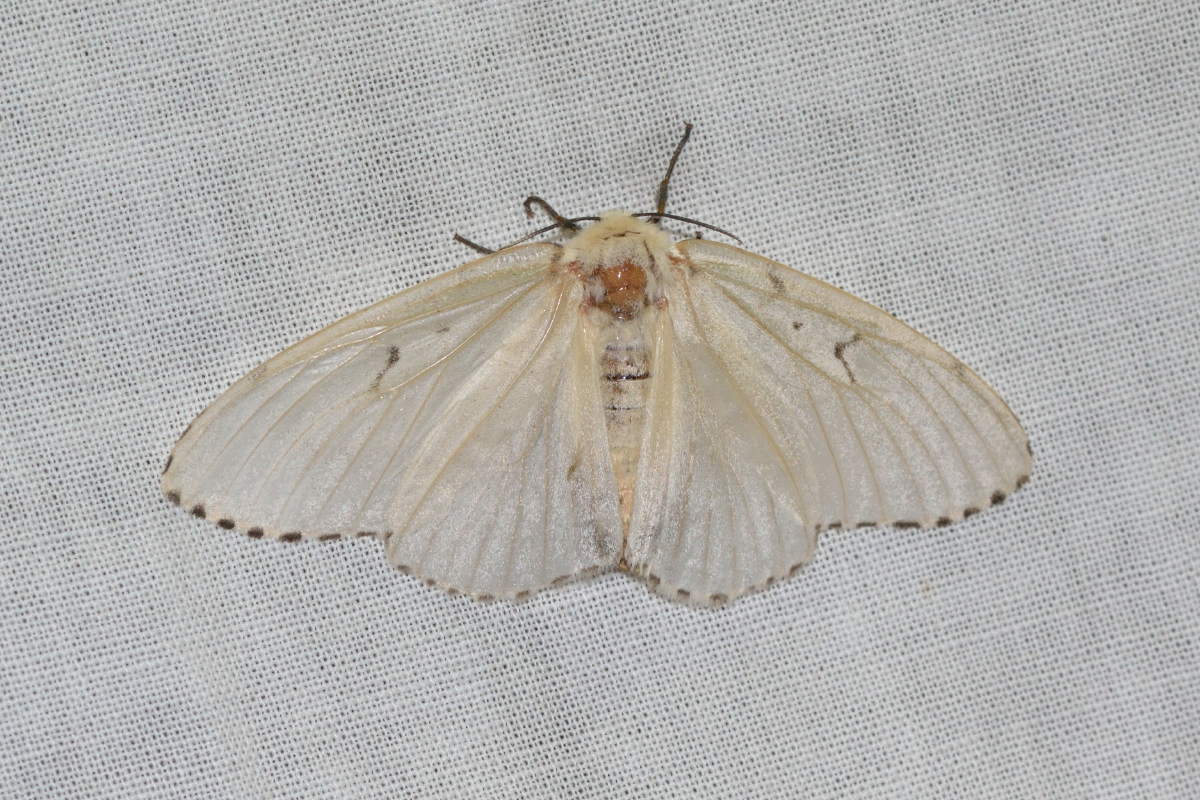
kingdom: Animalia
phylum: Arthropoda
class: Insecta
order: Lepidoptera
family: Erebidae
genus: Lymantria
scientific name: Lymantria dispar
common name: Gypsy moth
